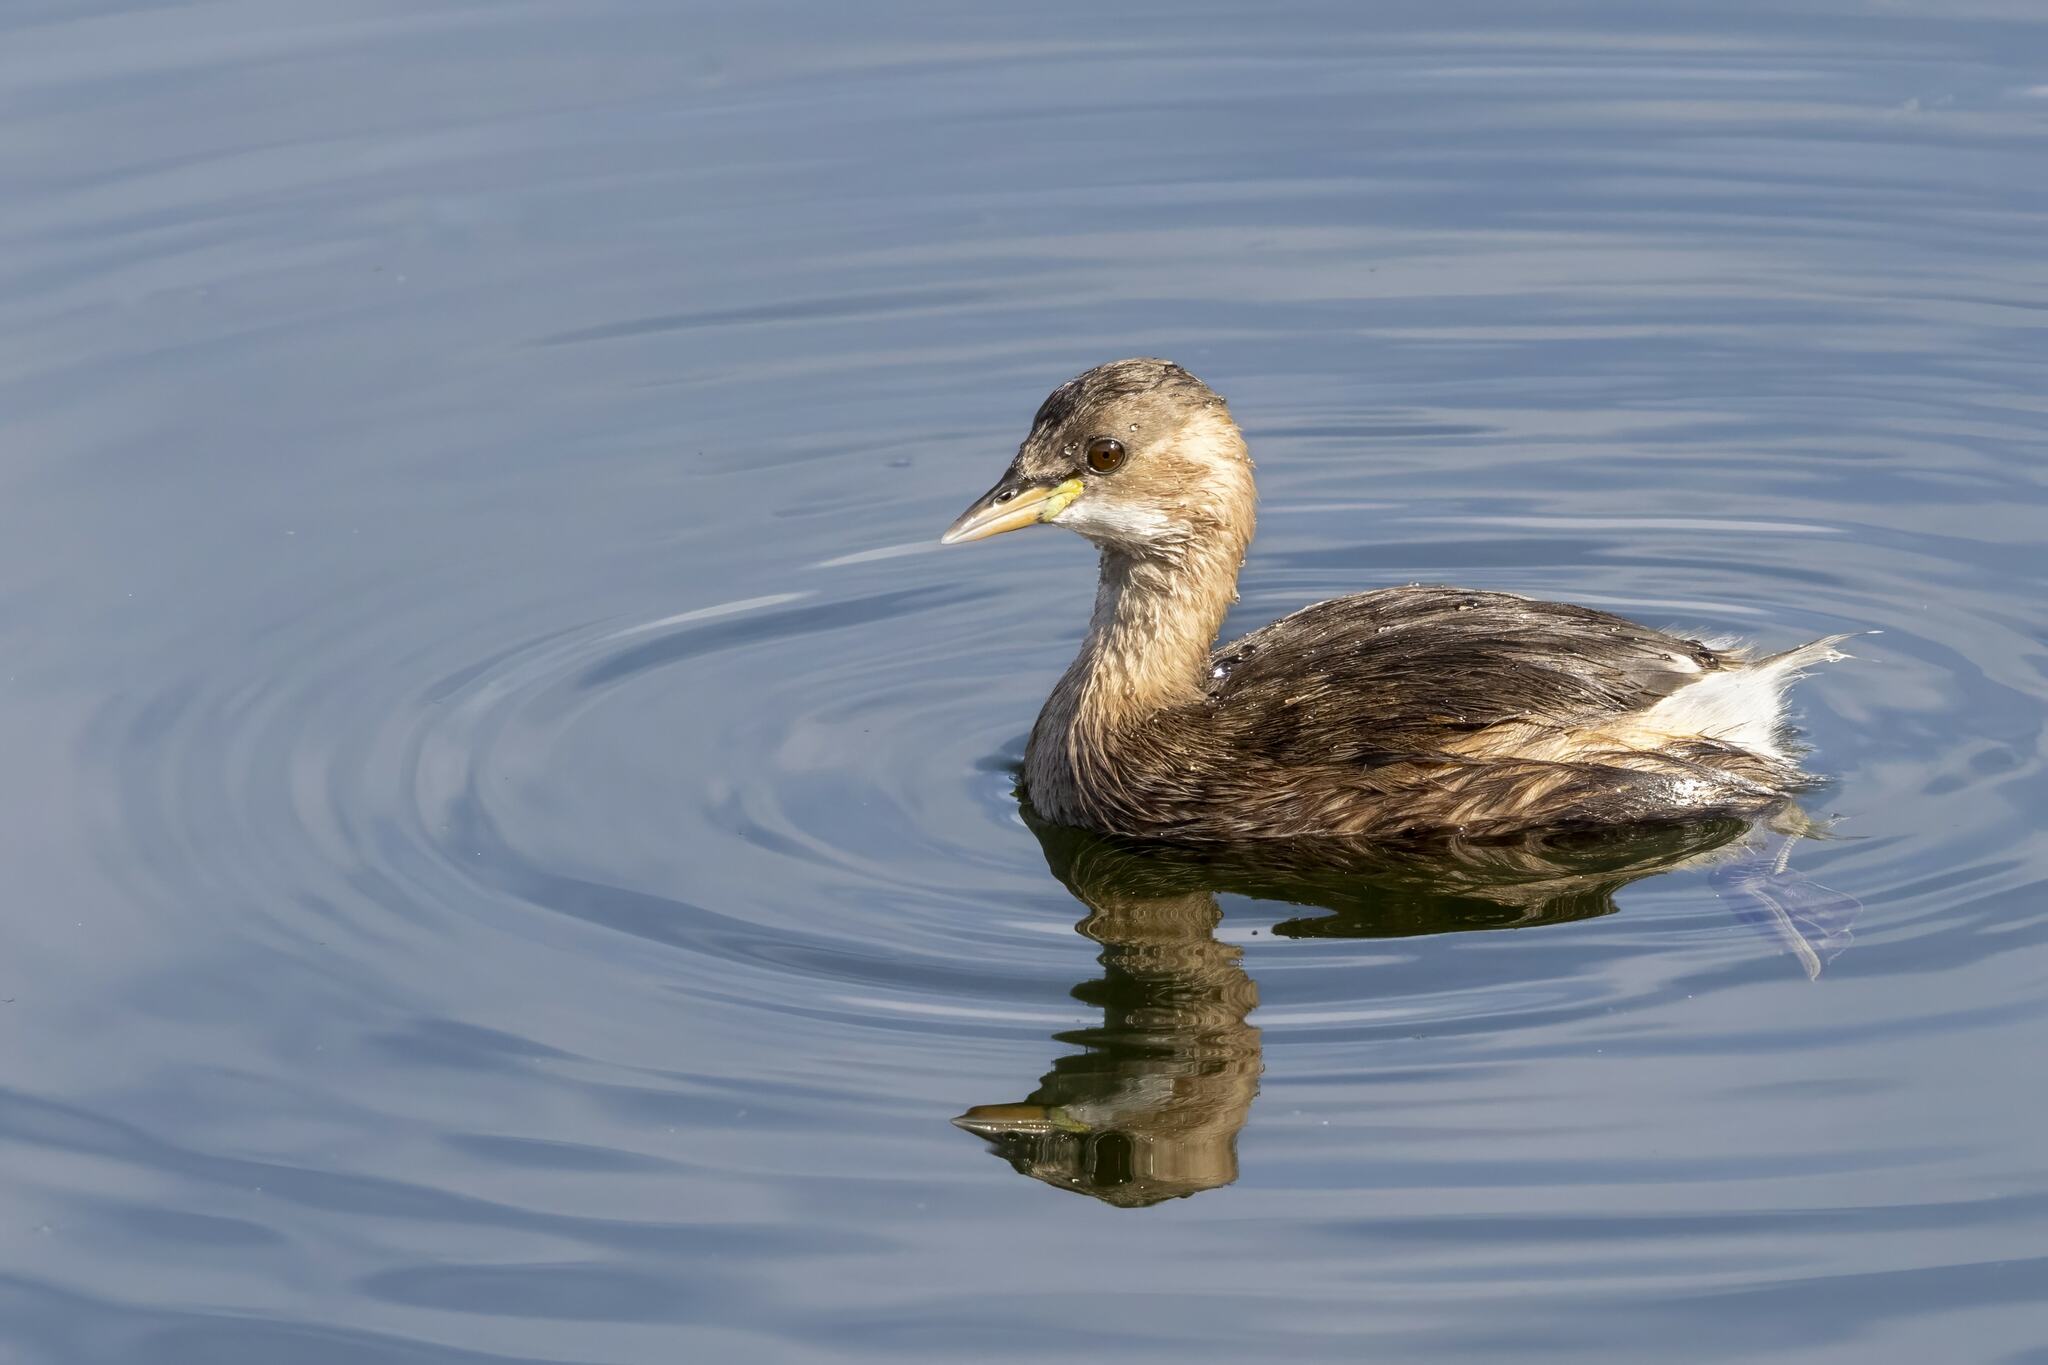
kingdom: Animalia
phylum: Chordata
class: Aves
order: Podicipediformes
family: Podicipedidae
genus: Tachybaptus
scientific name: Tachybaptus ruficollis
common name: Little grebe
